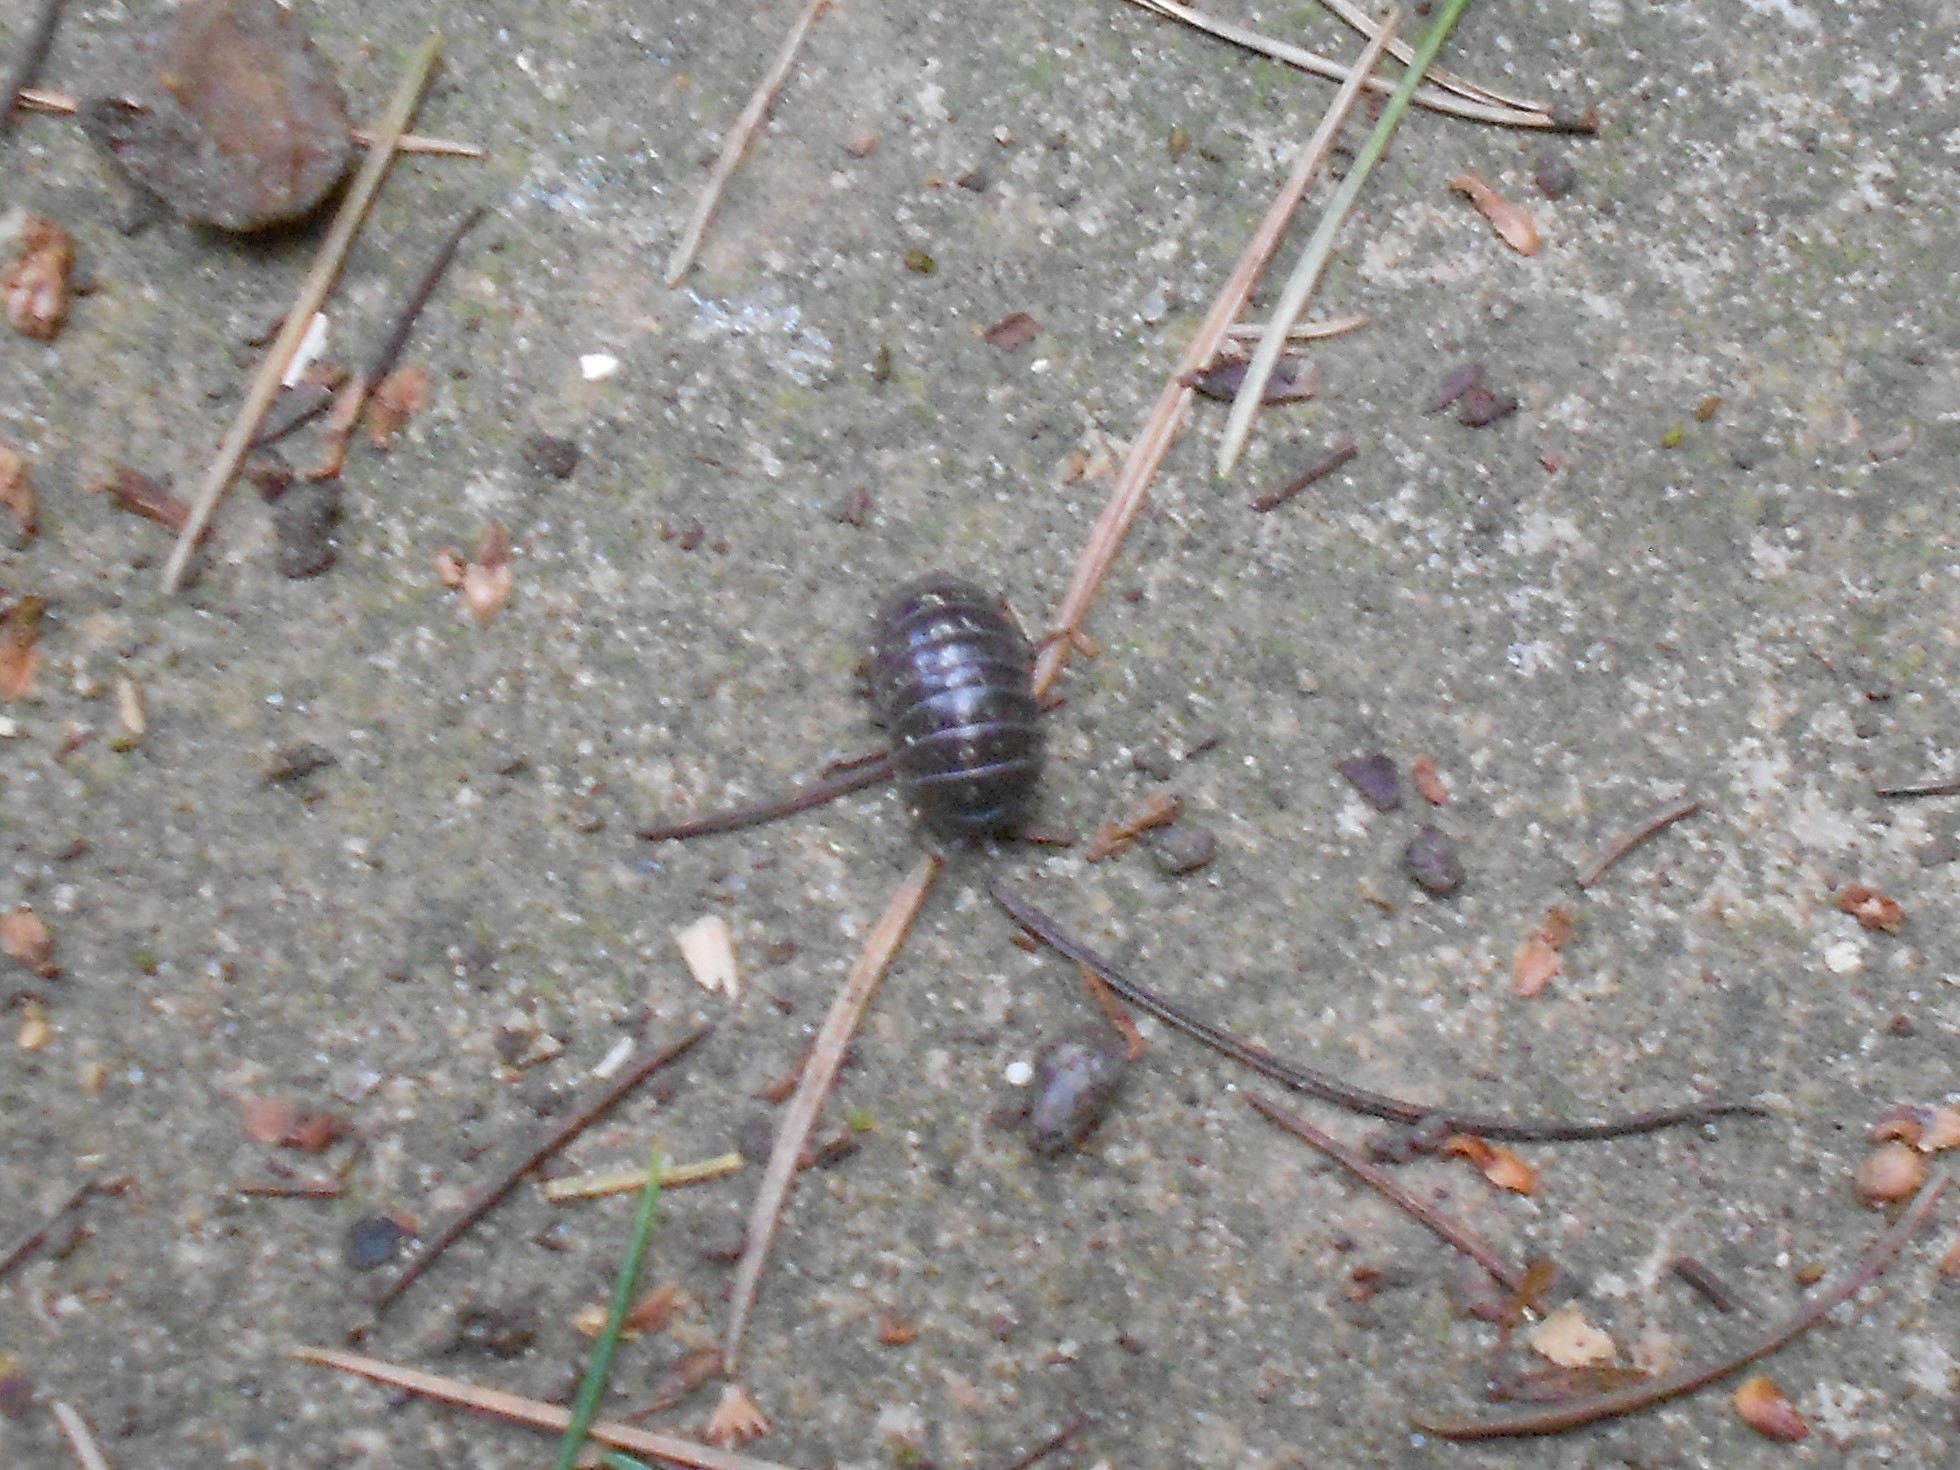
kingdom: Animalia
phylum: Arthropoda
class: Malacostraca
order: Isopoda
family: Armadillidiidae
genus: Armadillidium
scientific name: Armadillidium vulgare
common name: Common pill woodlouse
